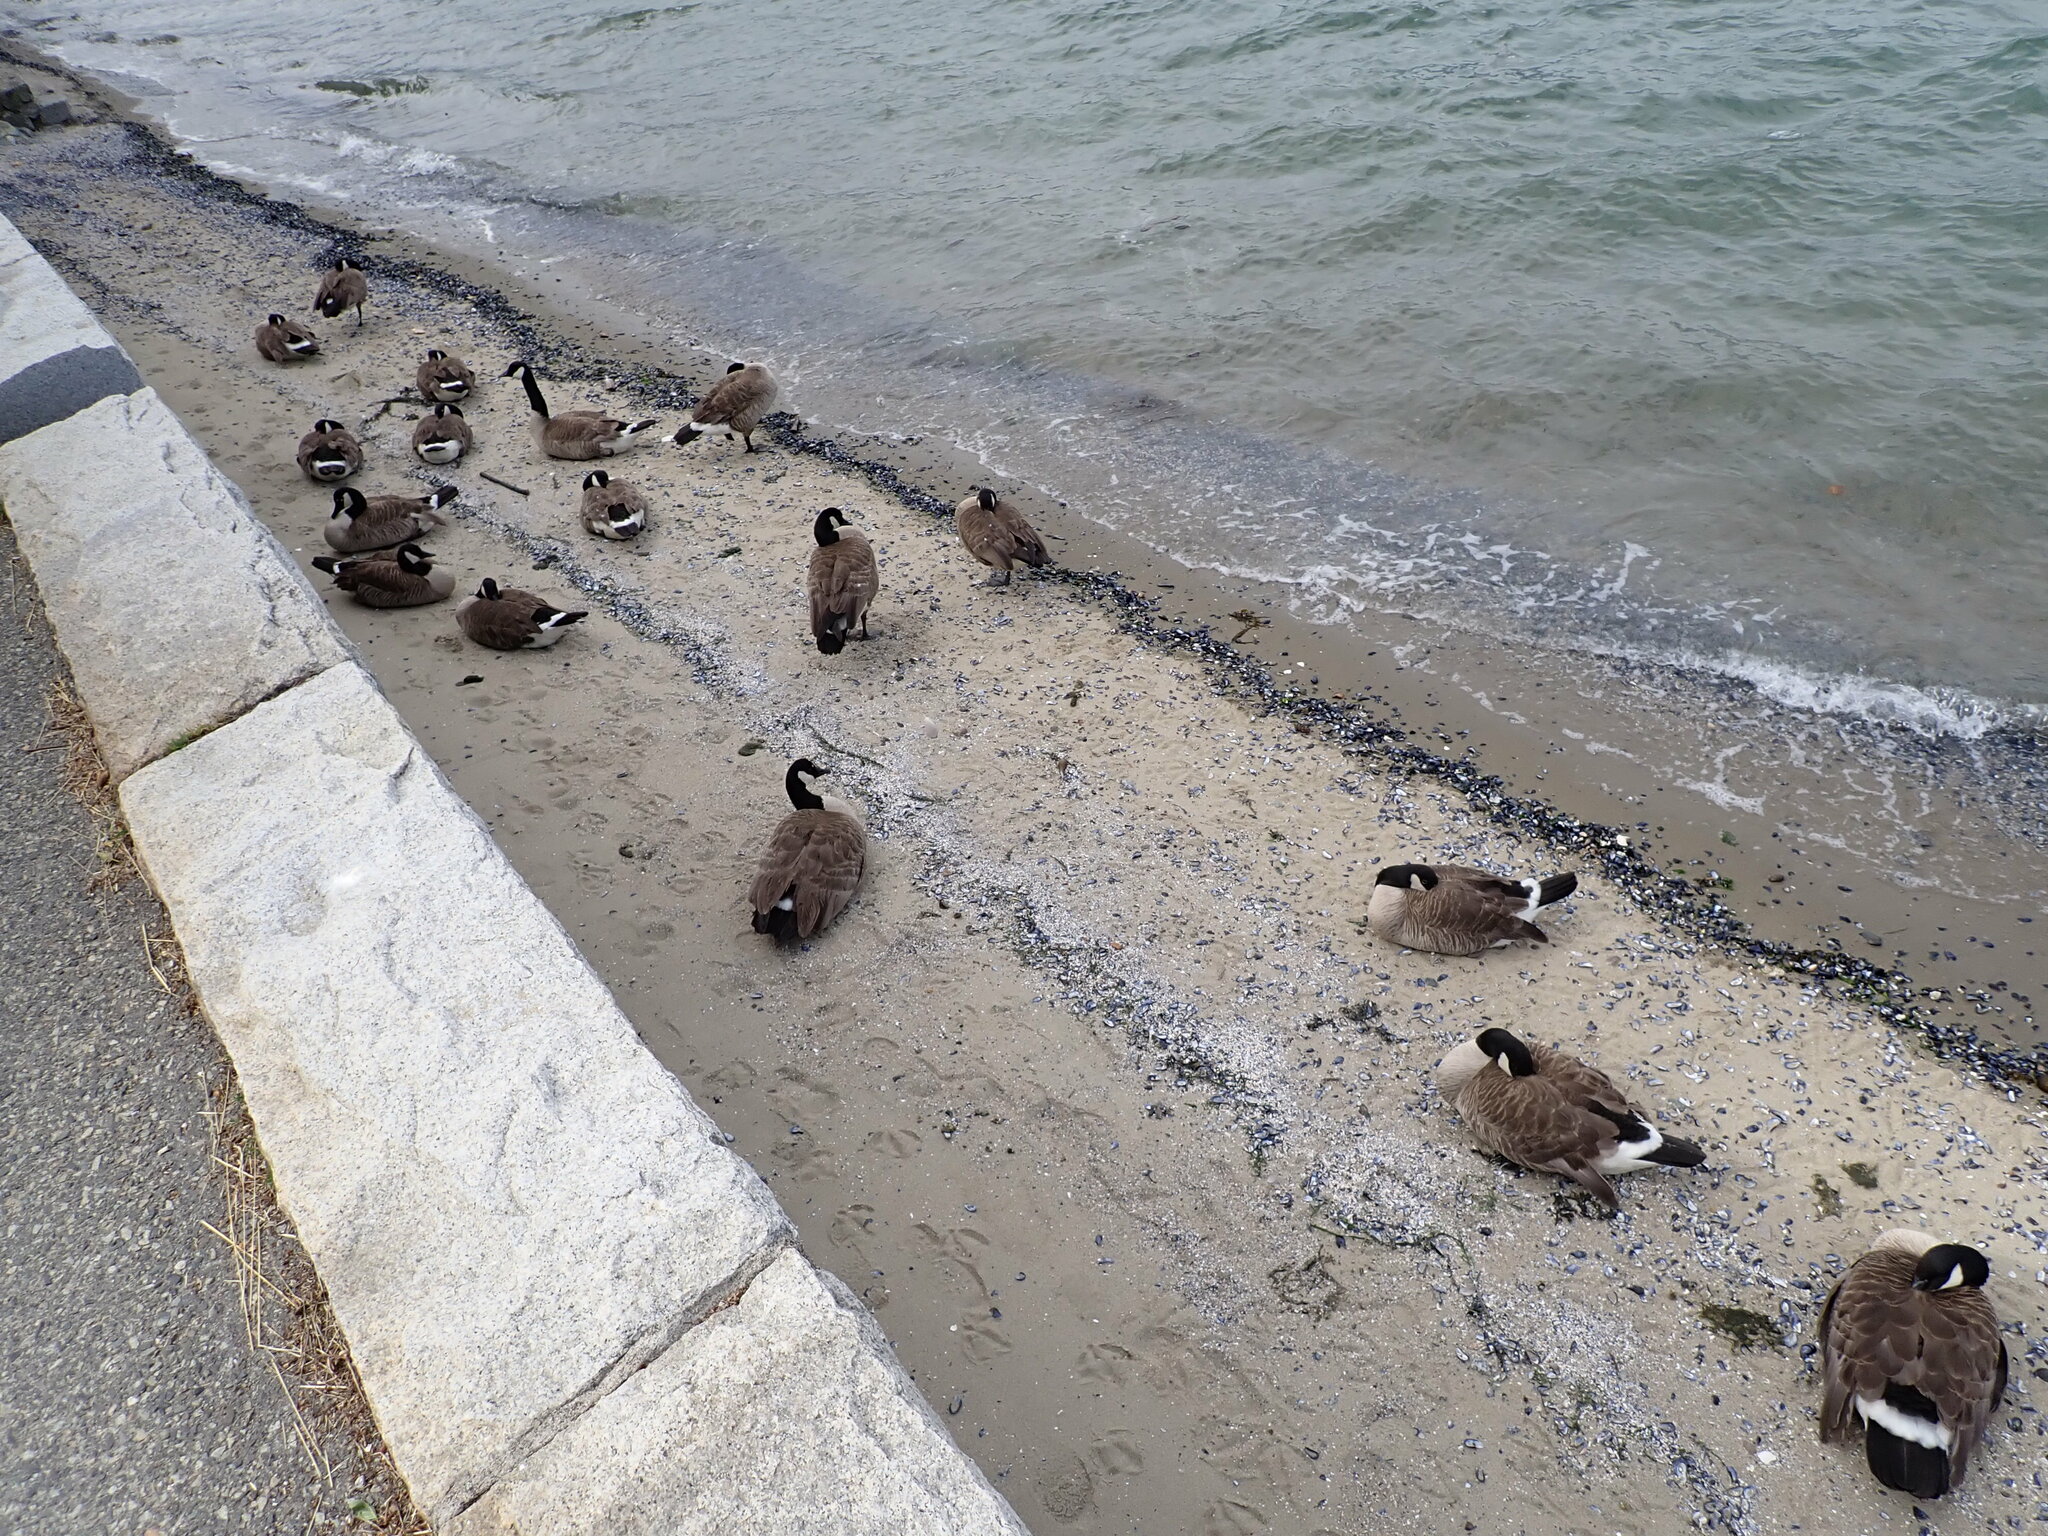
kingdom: Animalia
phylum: Chordata
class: Aves
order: Anseriformes
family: Anatidae
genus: Branta
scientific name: Branta canadensis
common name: Canada goose
